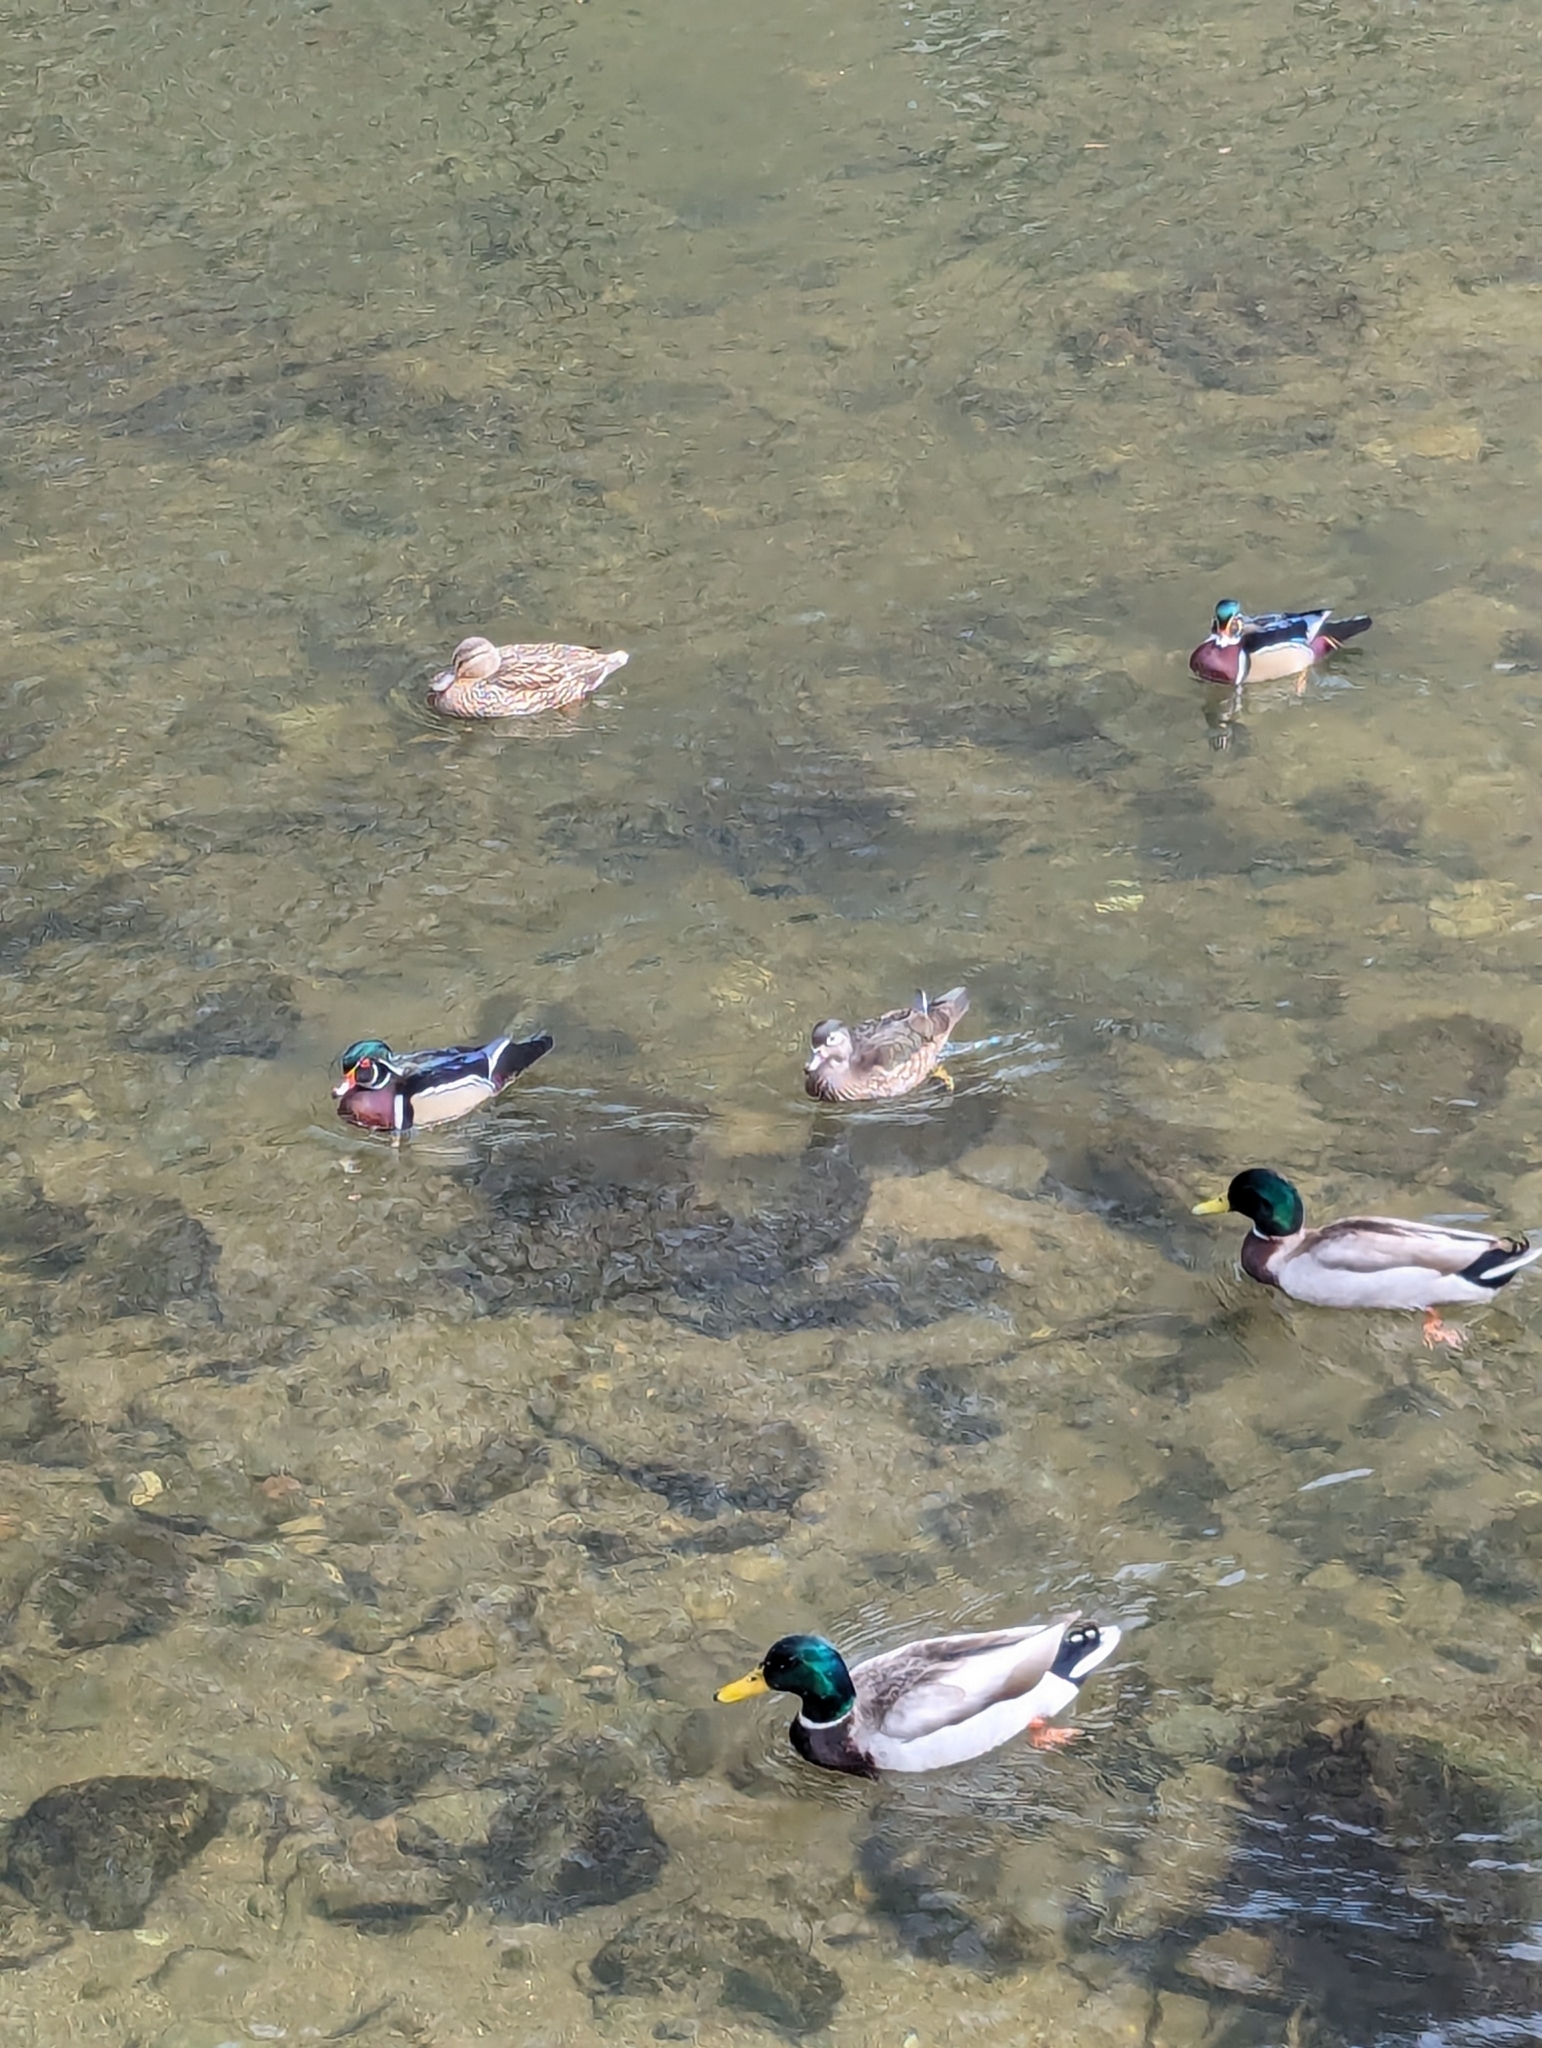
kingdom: Animalia
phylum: Chordata
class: Aves
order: Anseriformes
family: Anatidae
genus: Aix
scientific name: Aix sponsa
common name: Wood duck
